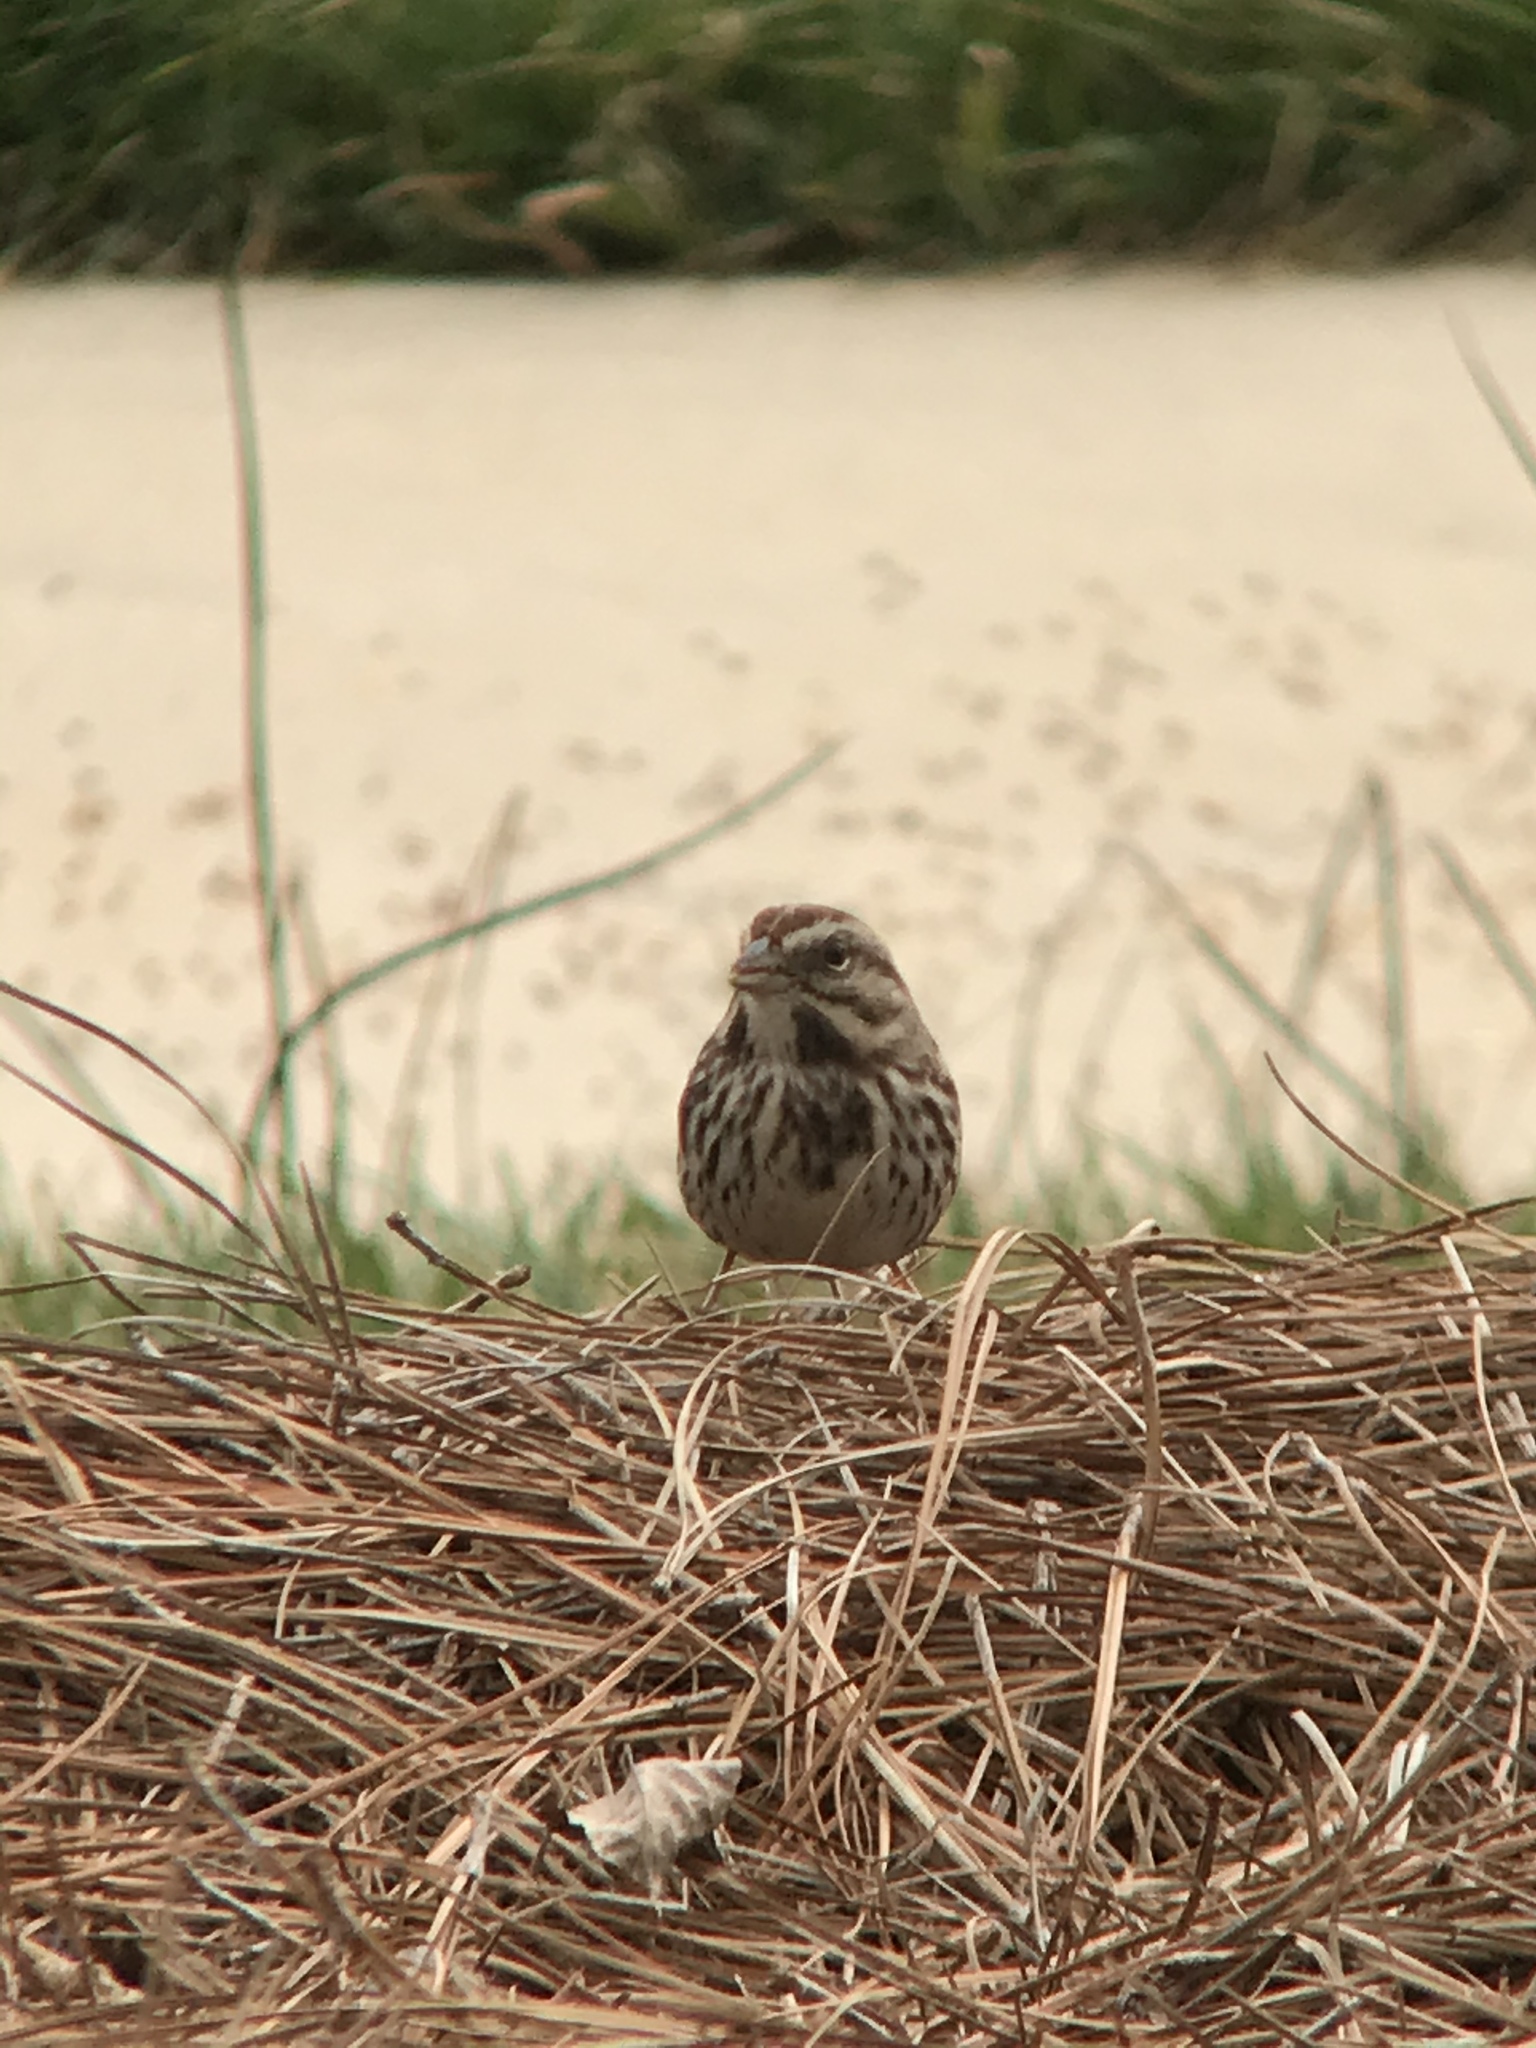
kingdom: Animalia
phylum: Chordata
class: Aves
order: Passeriformes
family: Passerellidae
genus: Melospiza
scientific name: Melospiza melodia
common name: Song sparrow
